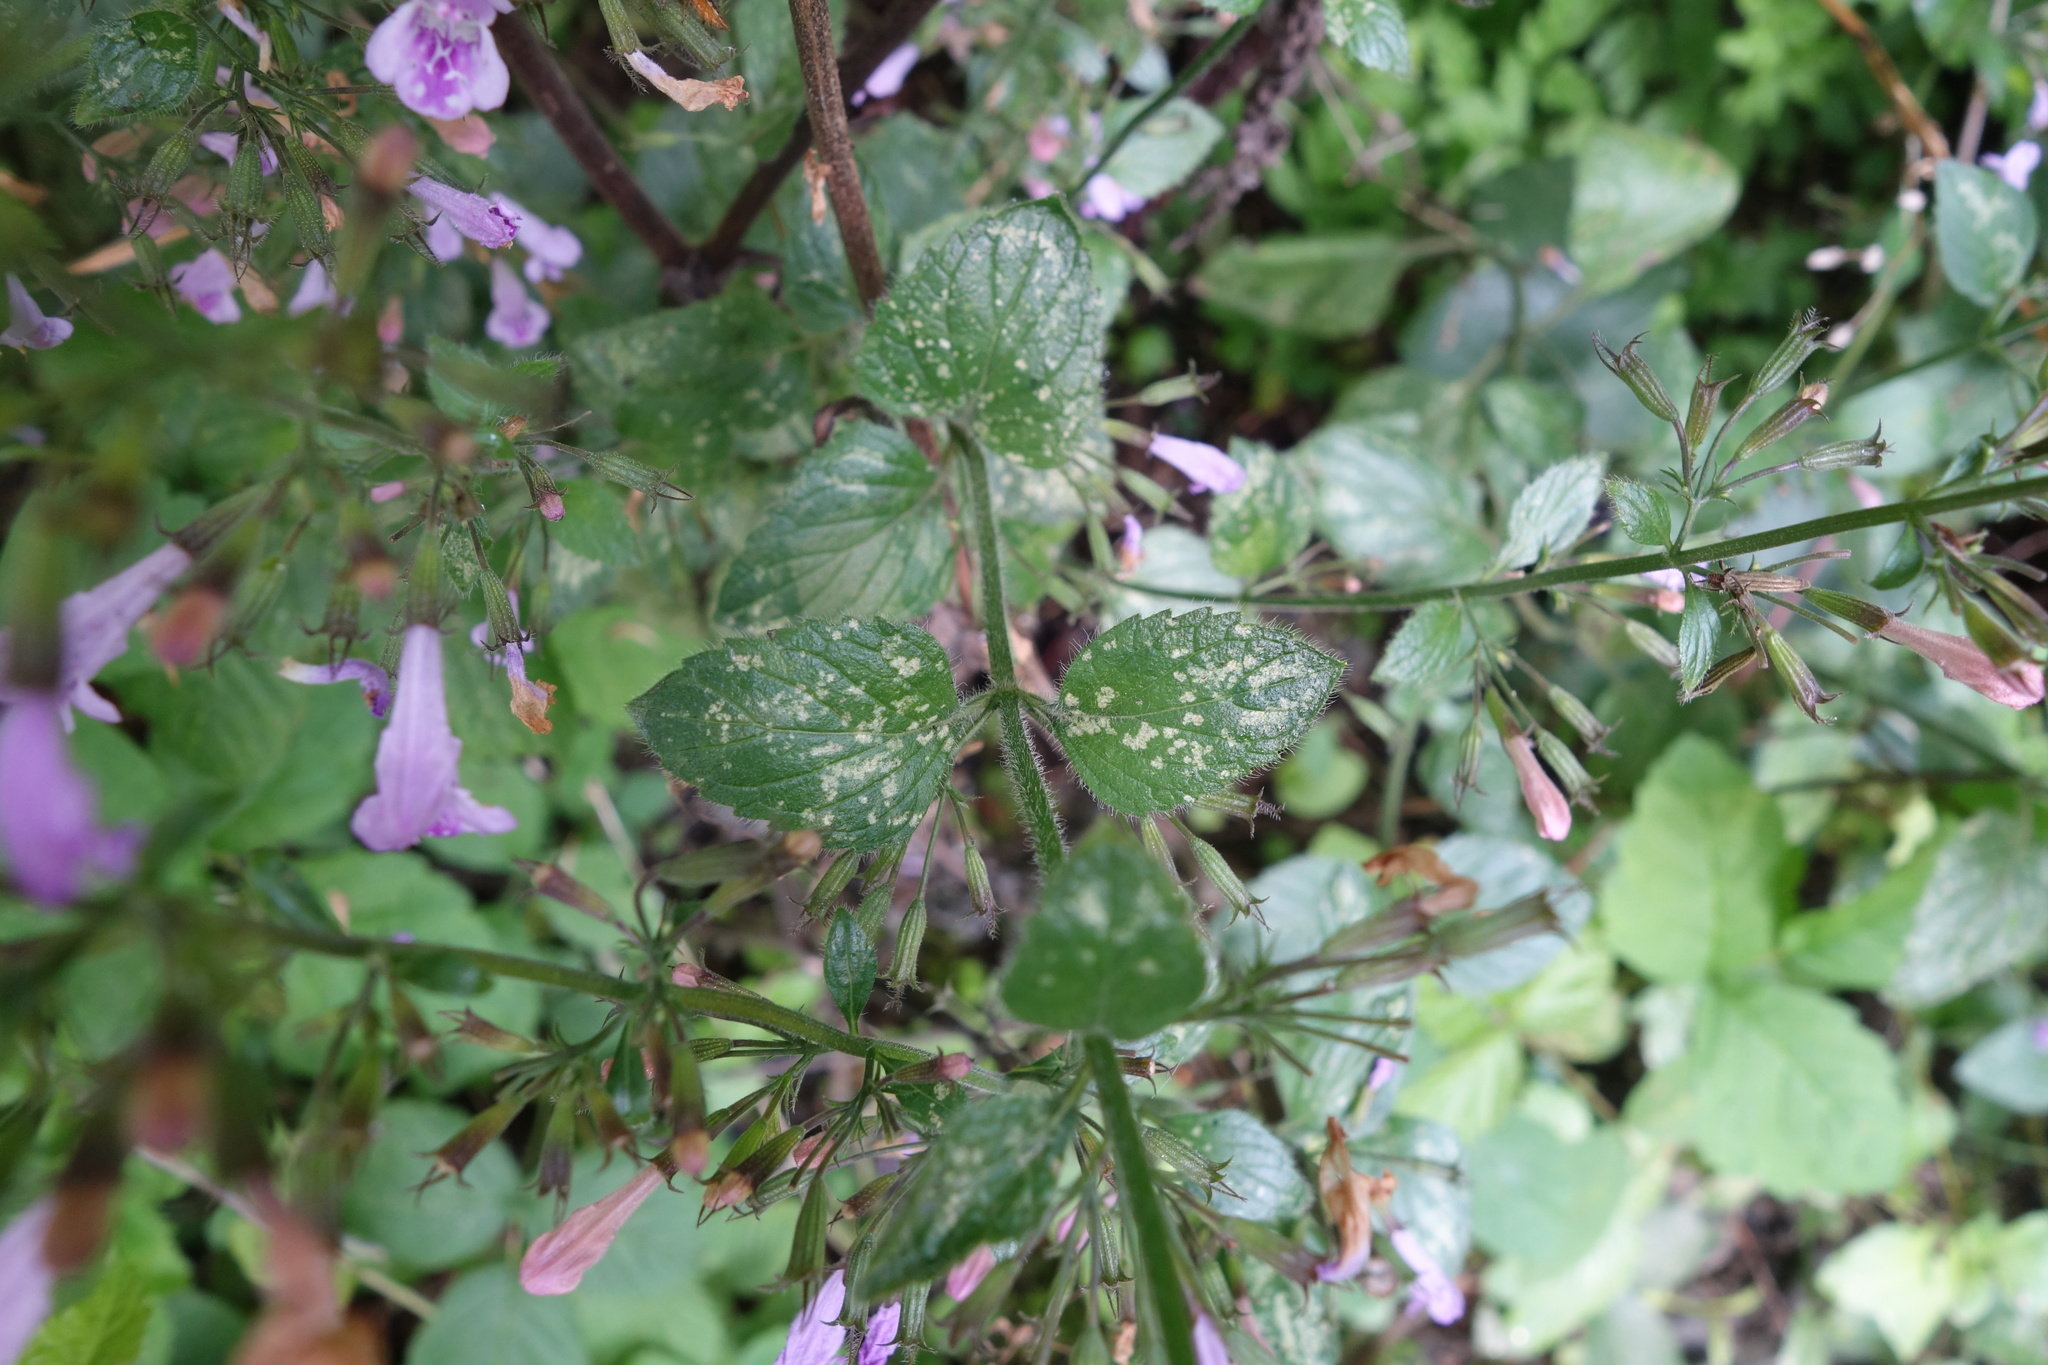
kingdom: Plantae
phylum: Tracheophyta
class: Magnoliopsida
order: Lamiales
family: Lamiaceae
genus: Clinopodium
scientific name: Clinopodium menthifolium
